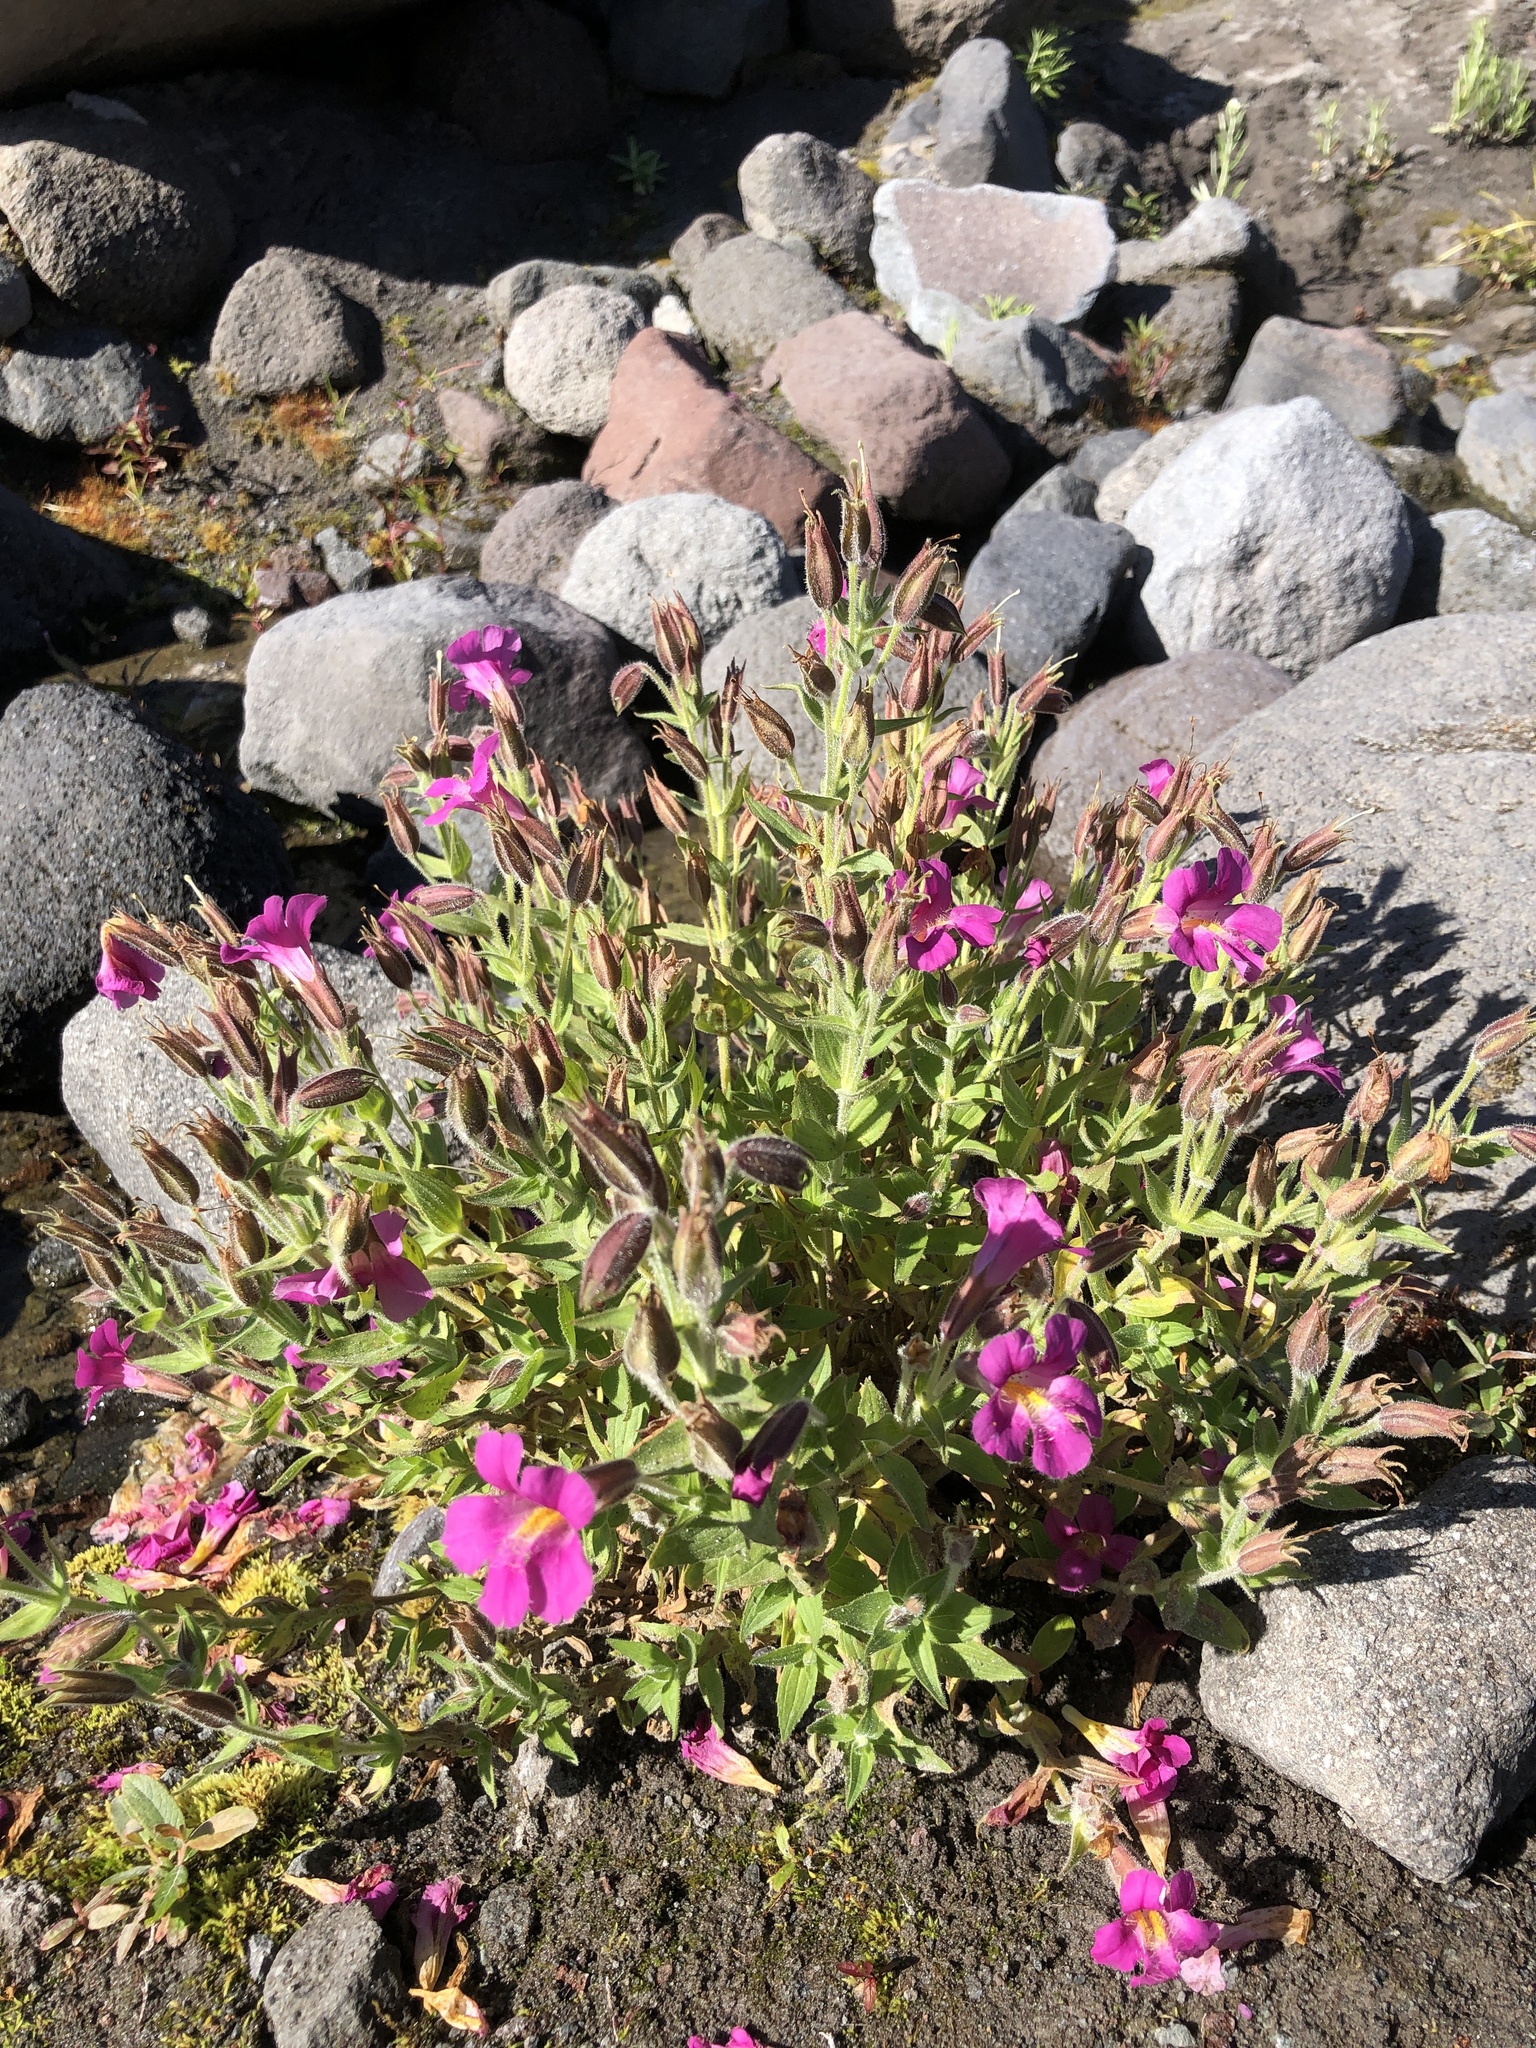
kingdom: Plantae
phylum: Tracheophyta
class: Magnoliopsida
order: Lamiales
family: Phrymaceae
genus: Erythranthe
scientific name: Erythranthe lewisii
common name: Lewis's monkey-flower
